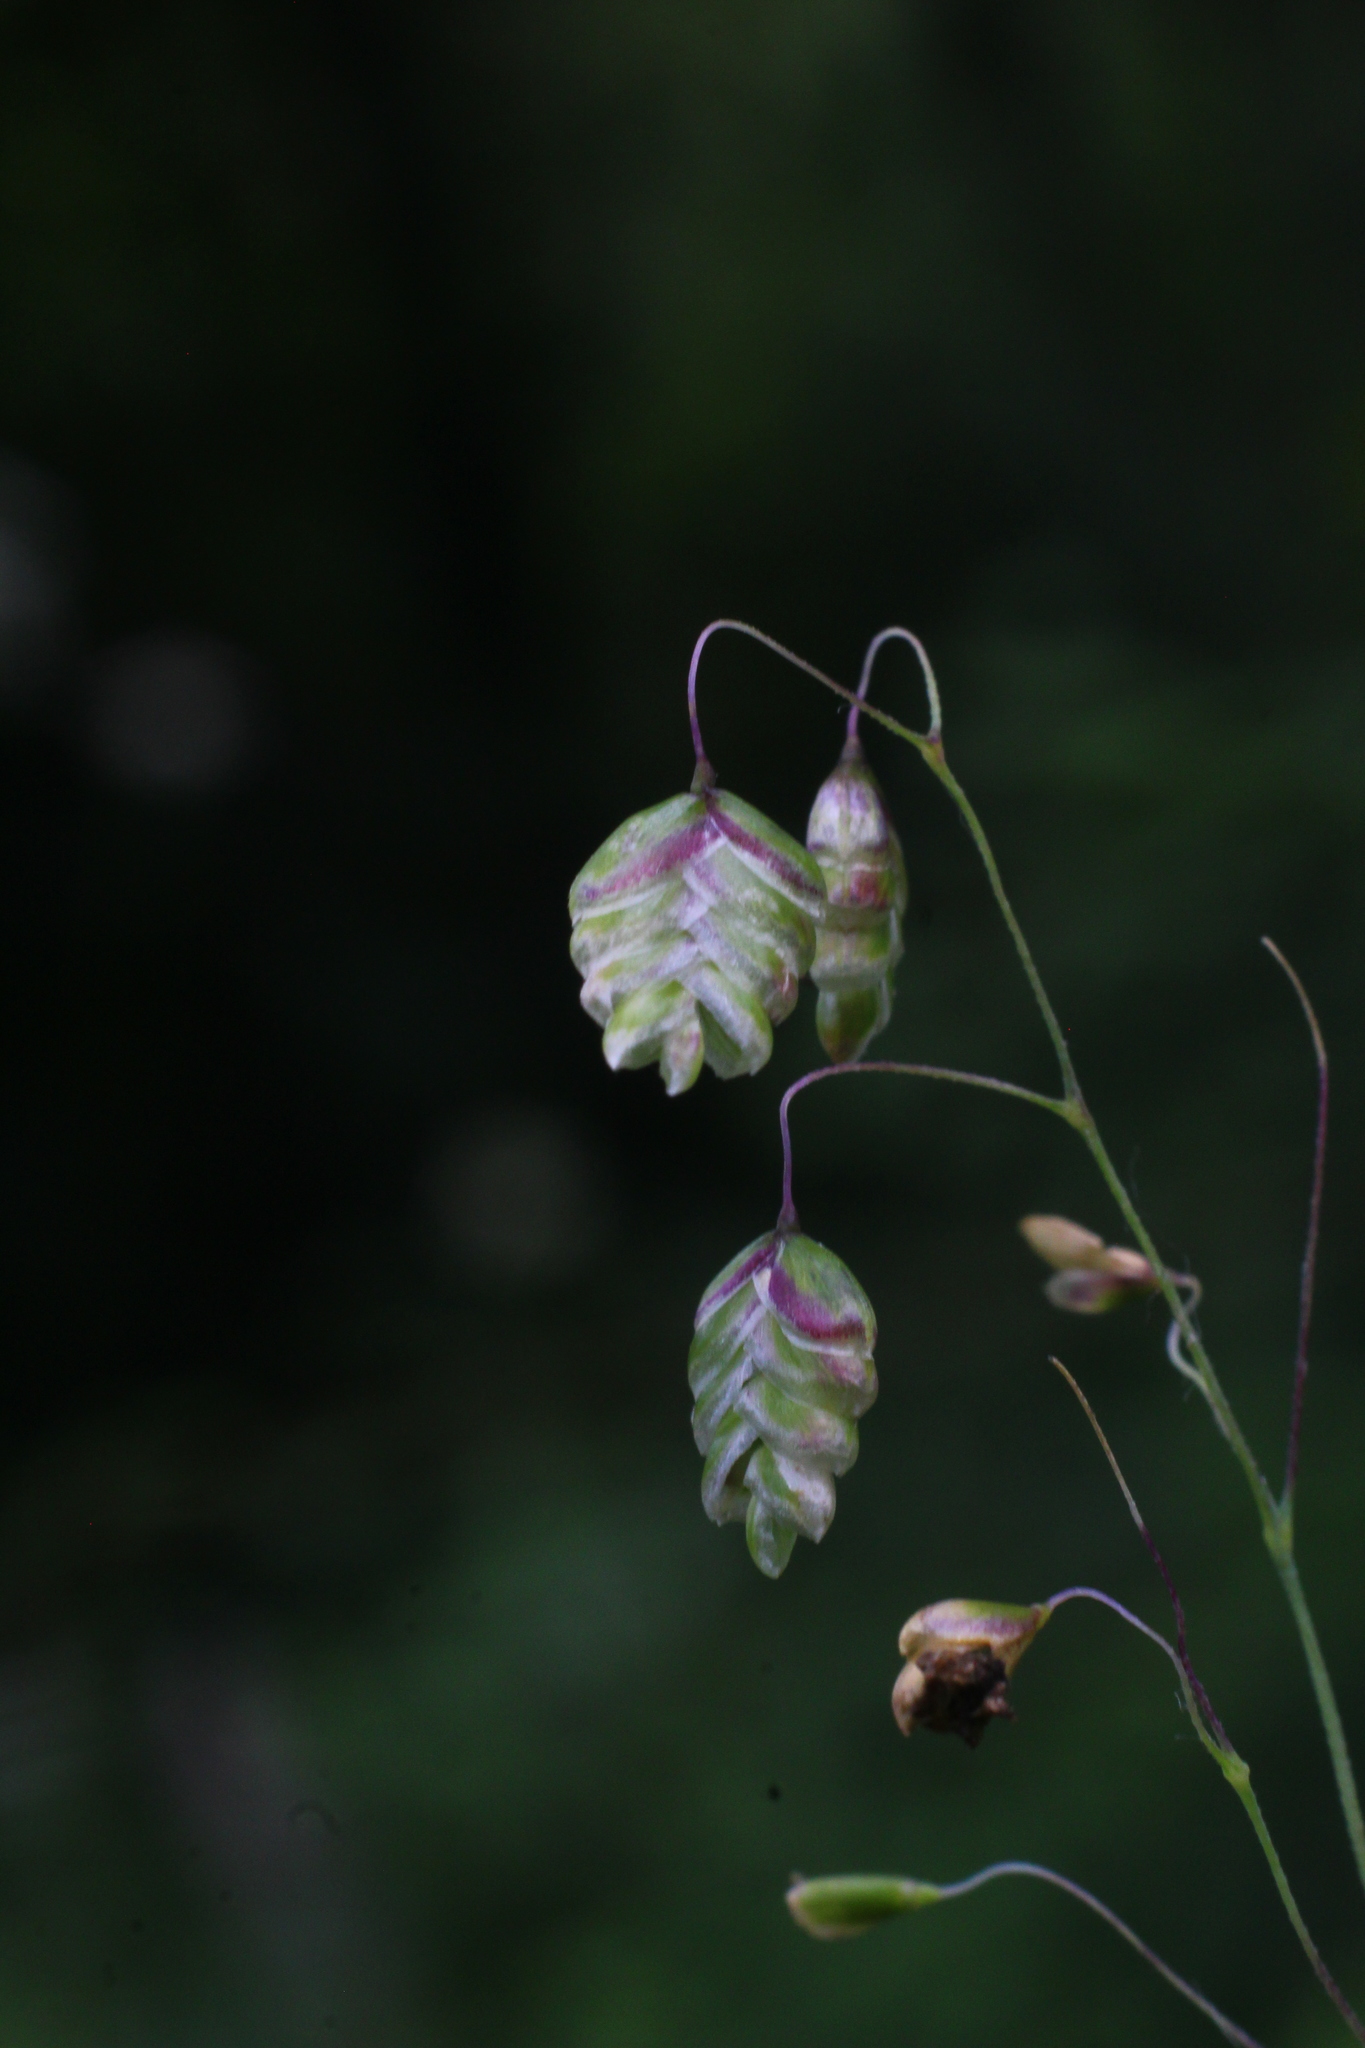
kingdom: Plantae
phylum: Tracheophyta
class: Liliopsida
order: Poales
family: Poaceae
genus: Briza
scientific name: Briza media
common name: Quaking grass
